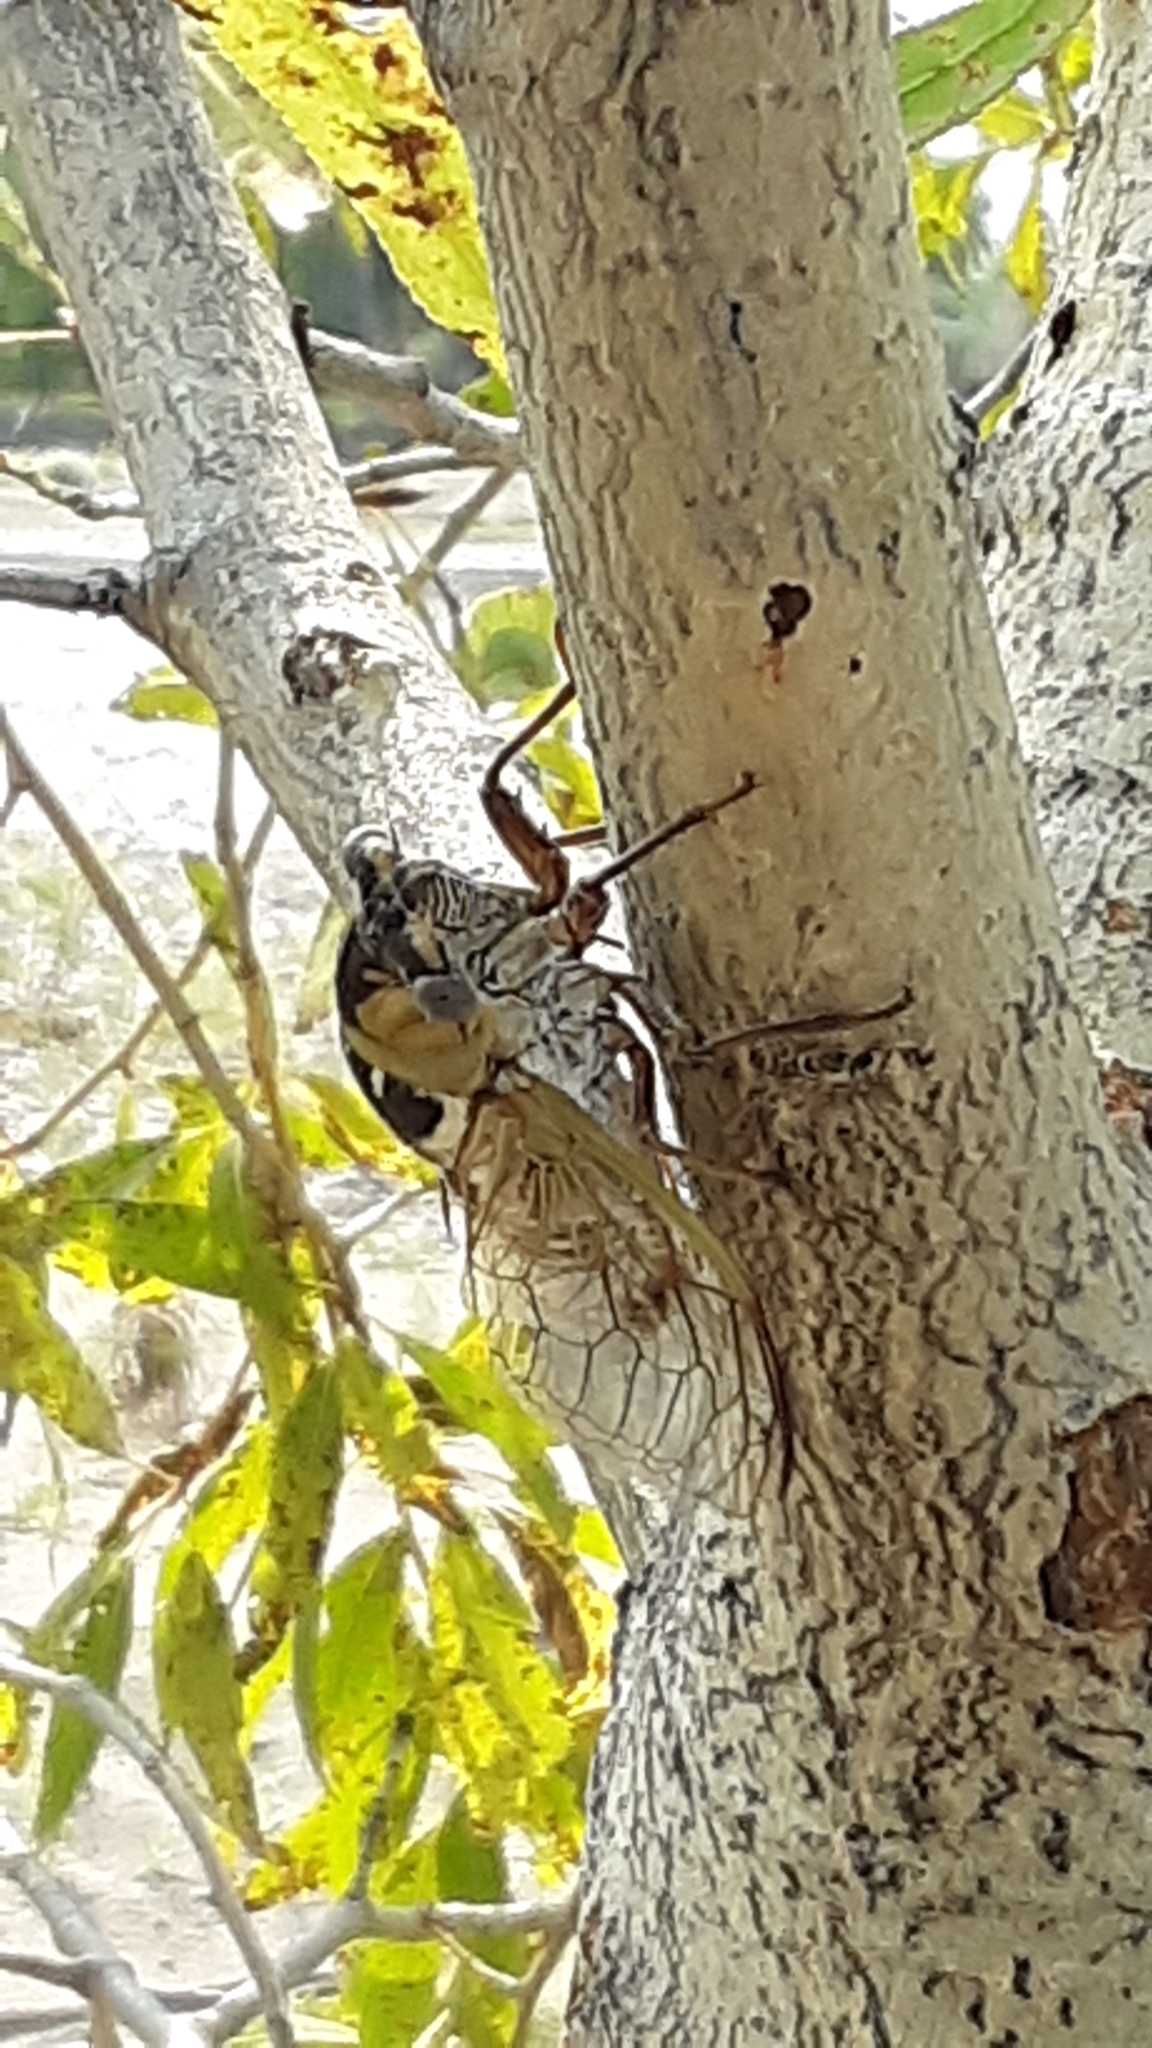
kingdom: Animalia
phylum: Arthropoda
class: Insecta
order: Hemiptera
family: Cicadidae
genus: Megatibicen
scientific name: Megatibicen dealbatus
